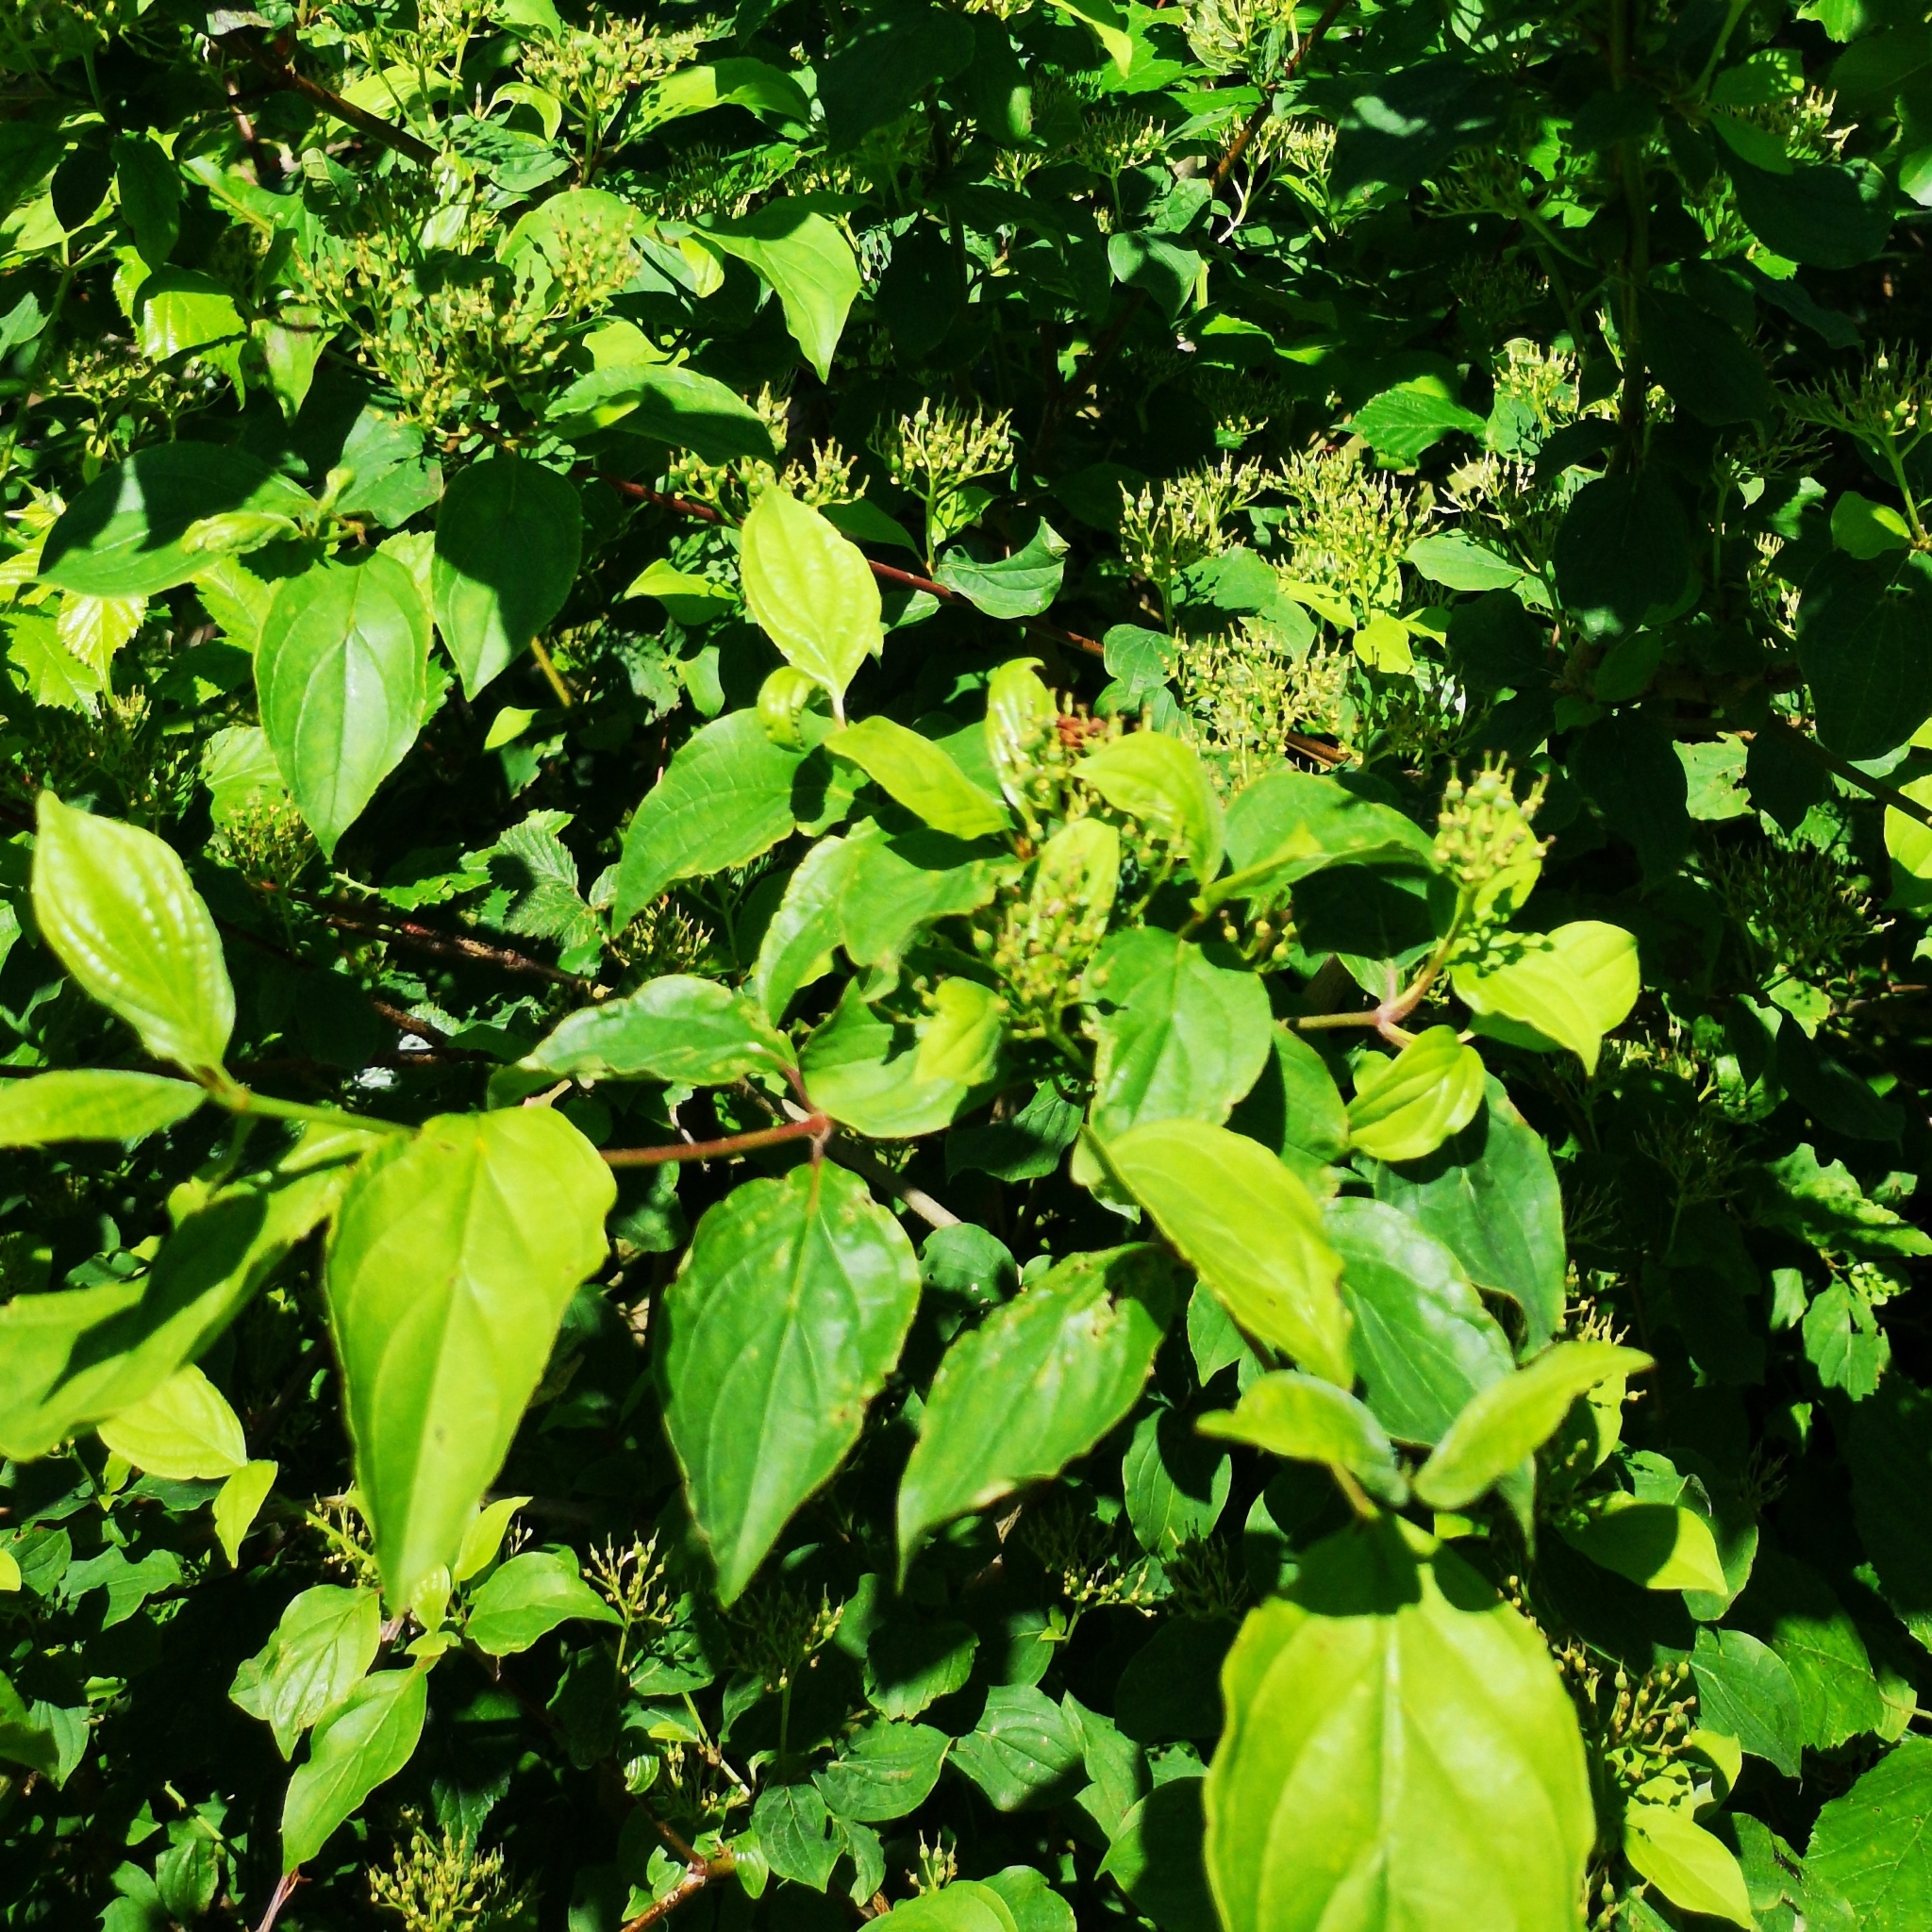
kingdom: Plantae
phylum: Tracheophyta
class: Magnoliopsida
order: Cornales
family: Cornaceae
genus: Cornus
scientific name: Cornus sanguinea
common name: Dogwood
